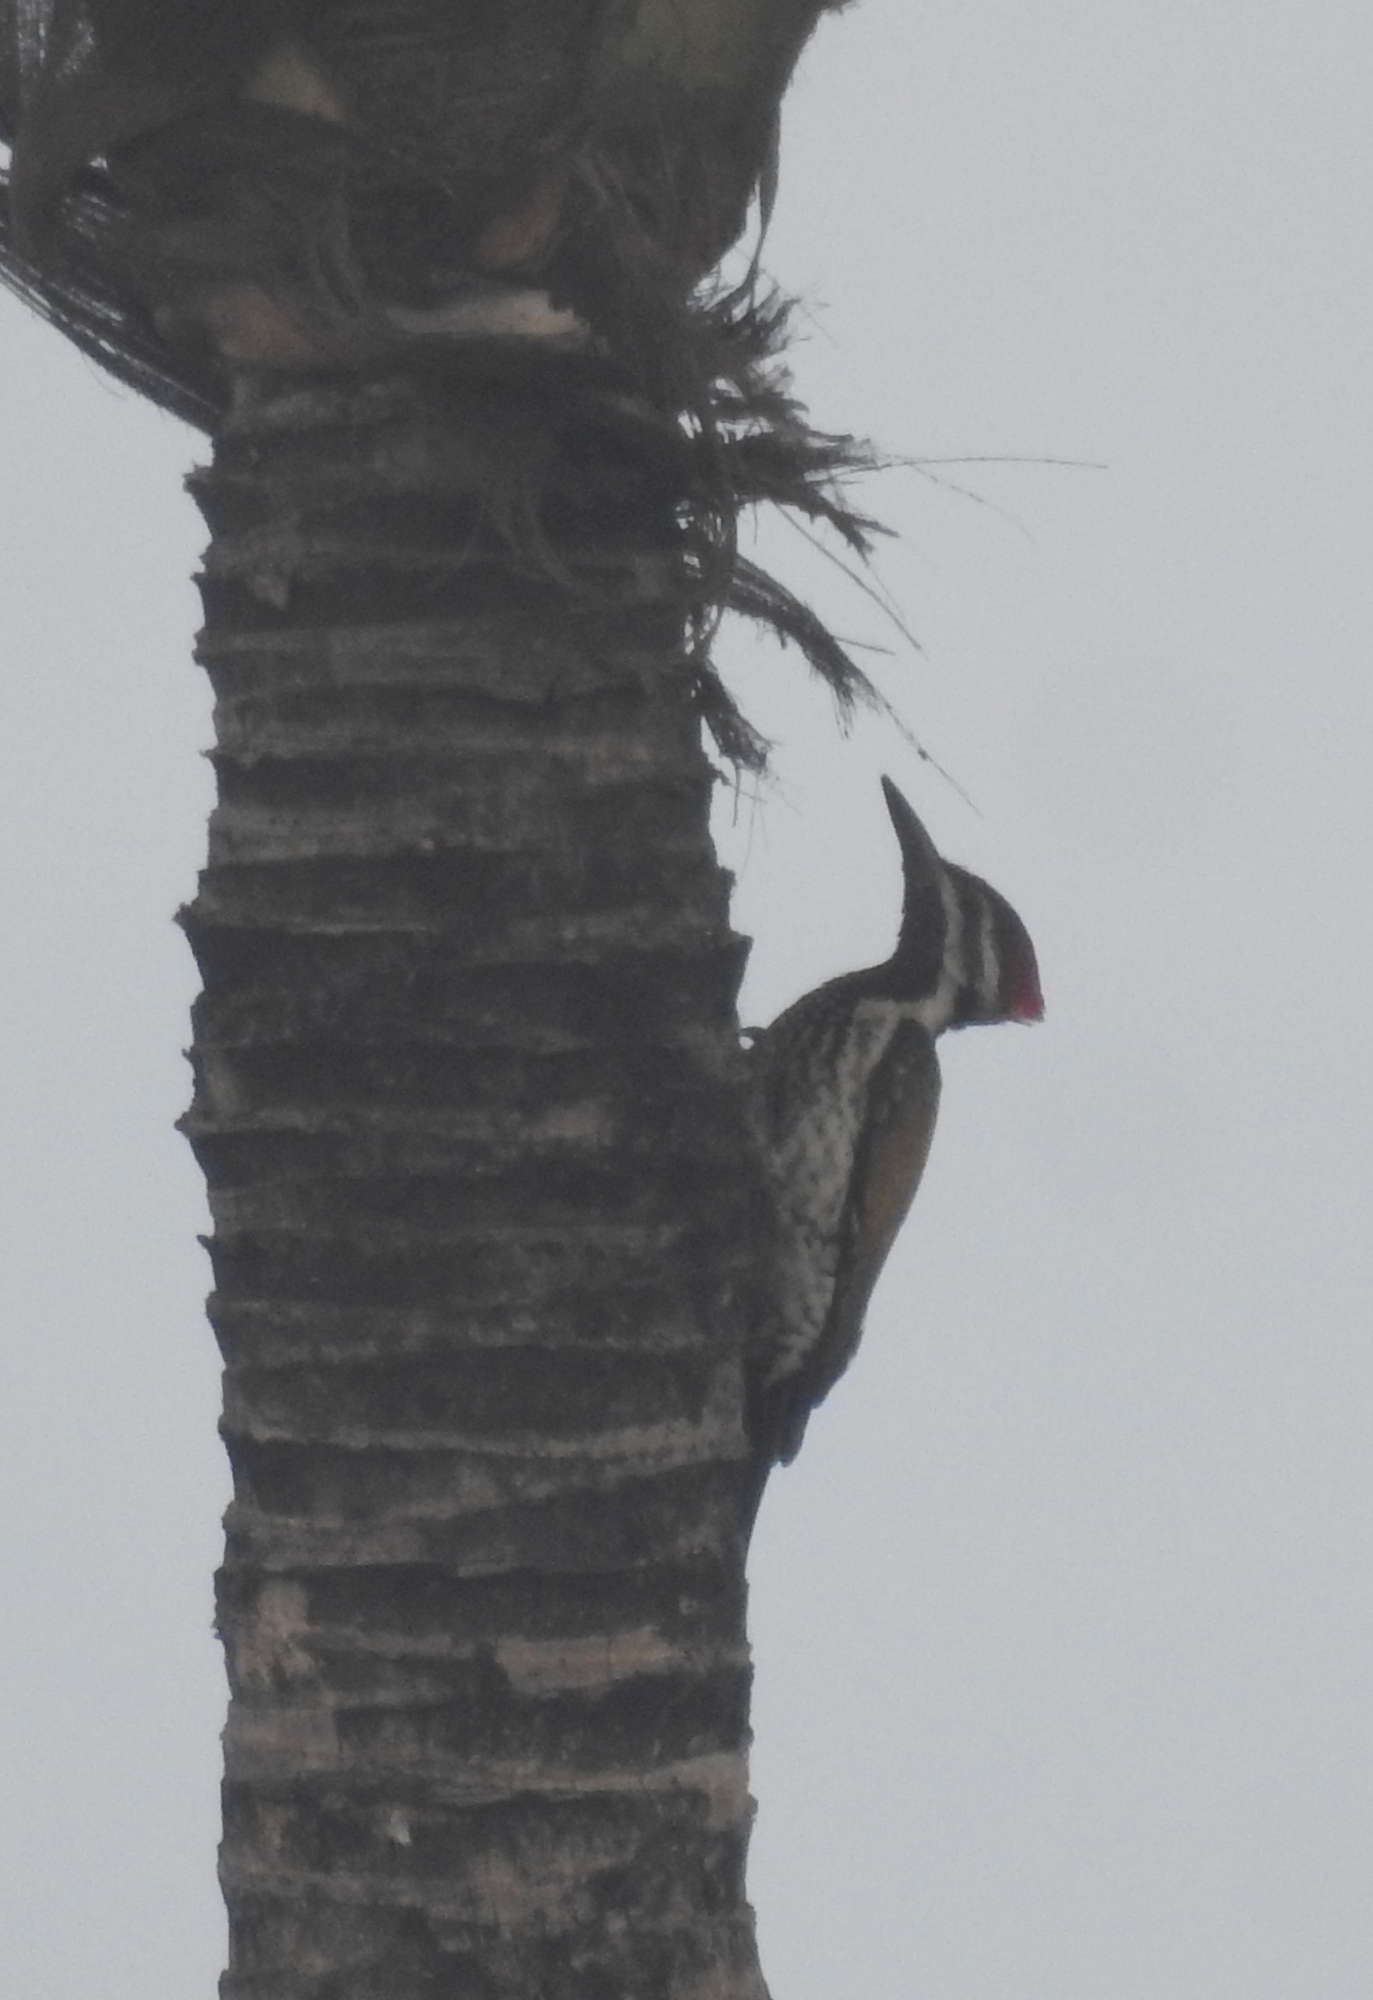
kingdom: Animalia
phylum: Chordata
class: Aves
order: Piciformes
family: Picidae
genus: Dinopium
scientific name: Dinopium benghalense
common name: Black-rumped flameback
